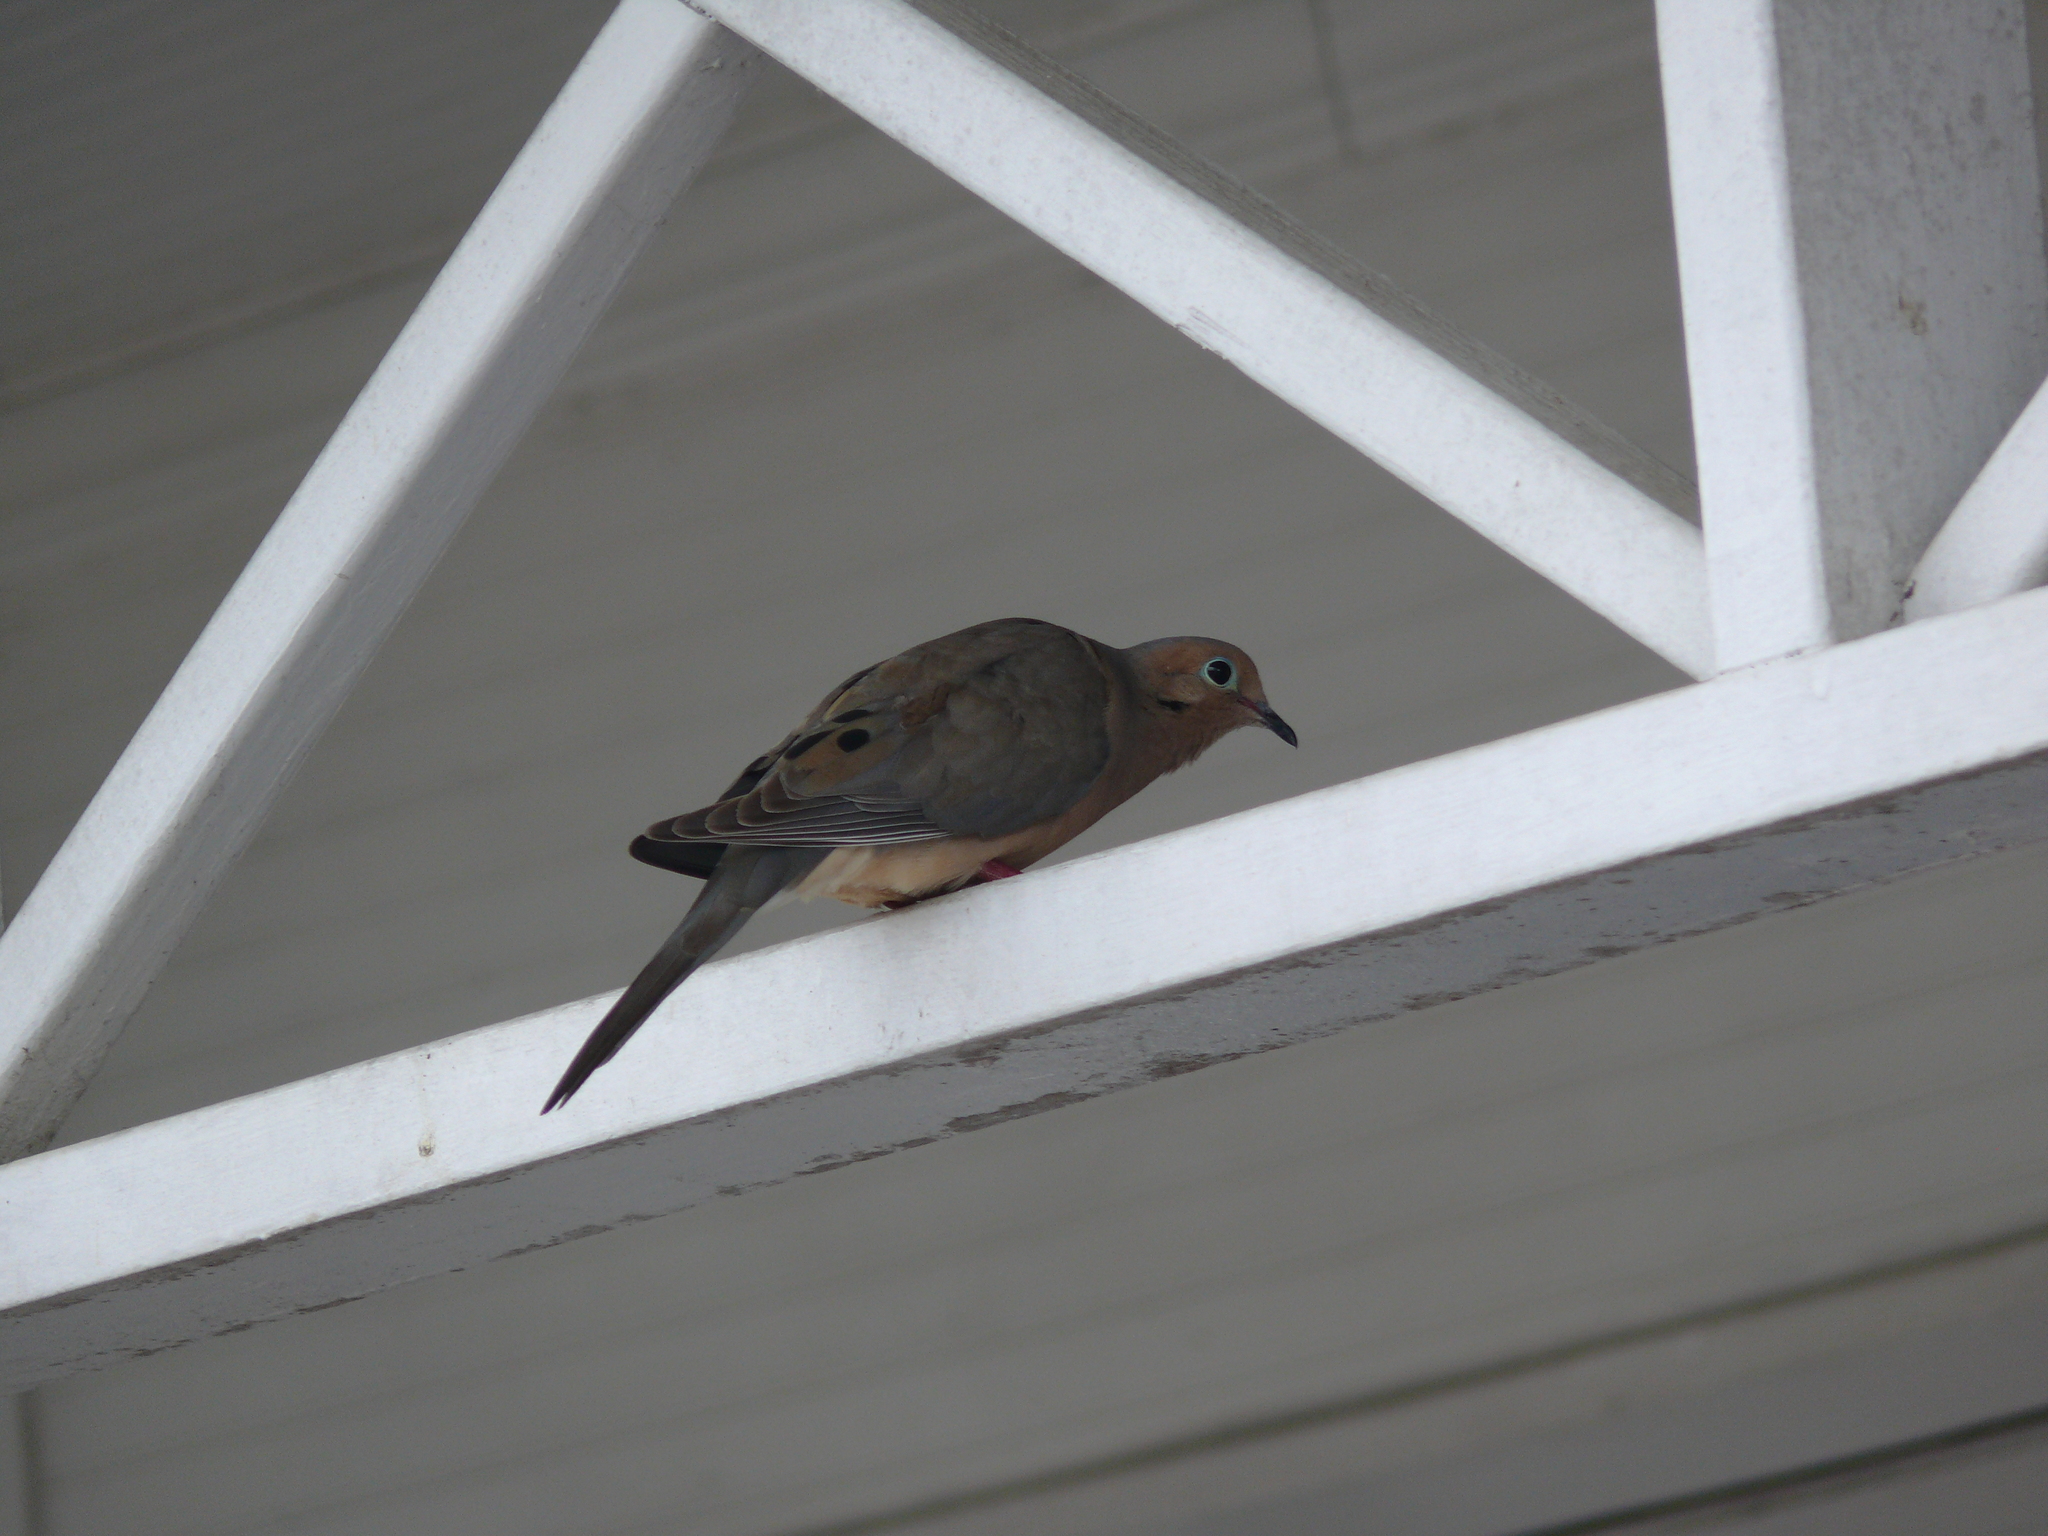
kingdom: Animalia
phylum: Chordata
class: Aves
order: Columbiformes
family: Columbidae
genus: Zenaida
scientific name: Zenaida macroura
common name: Mourning dove
